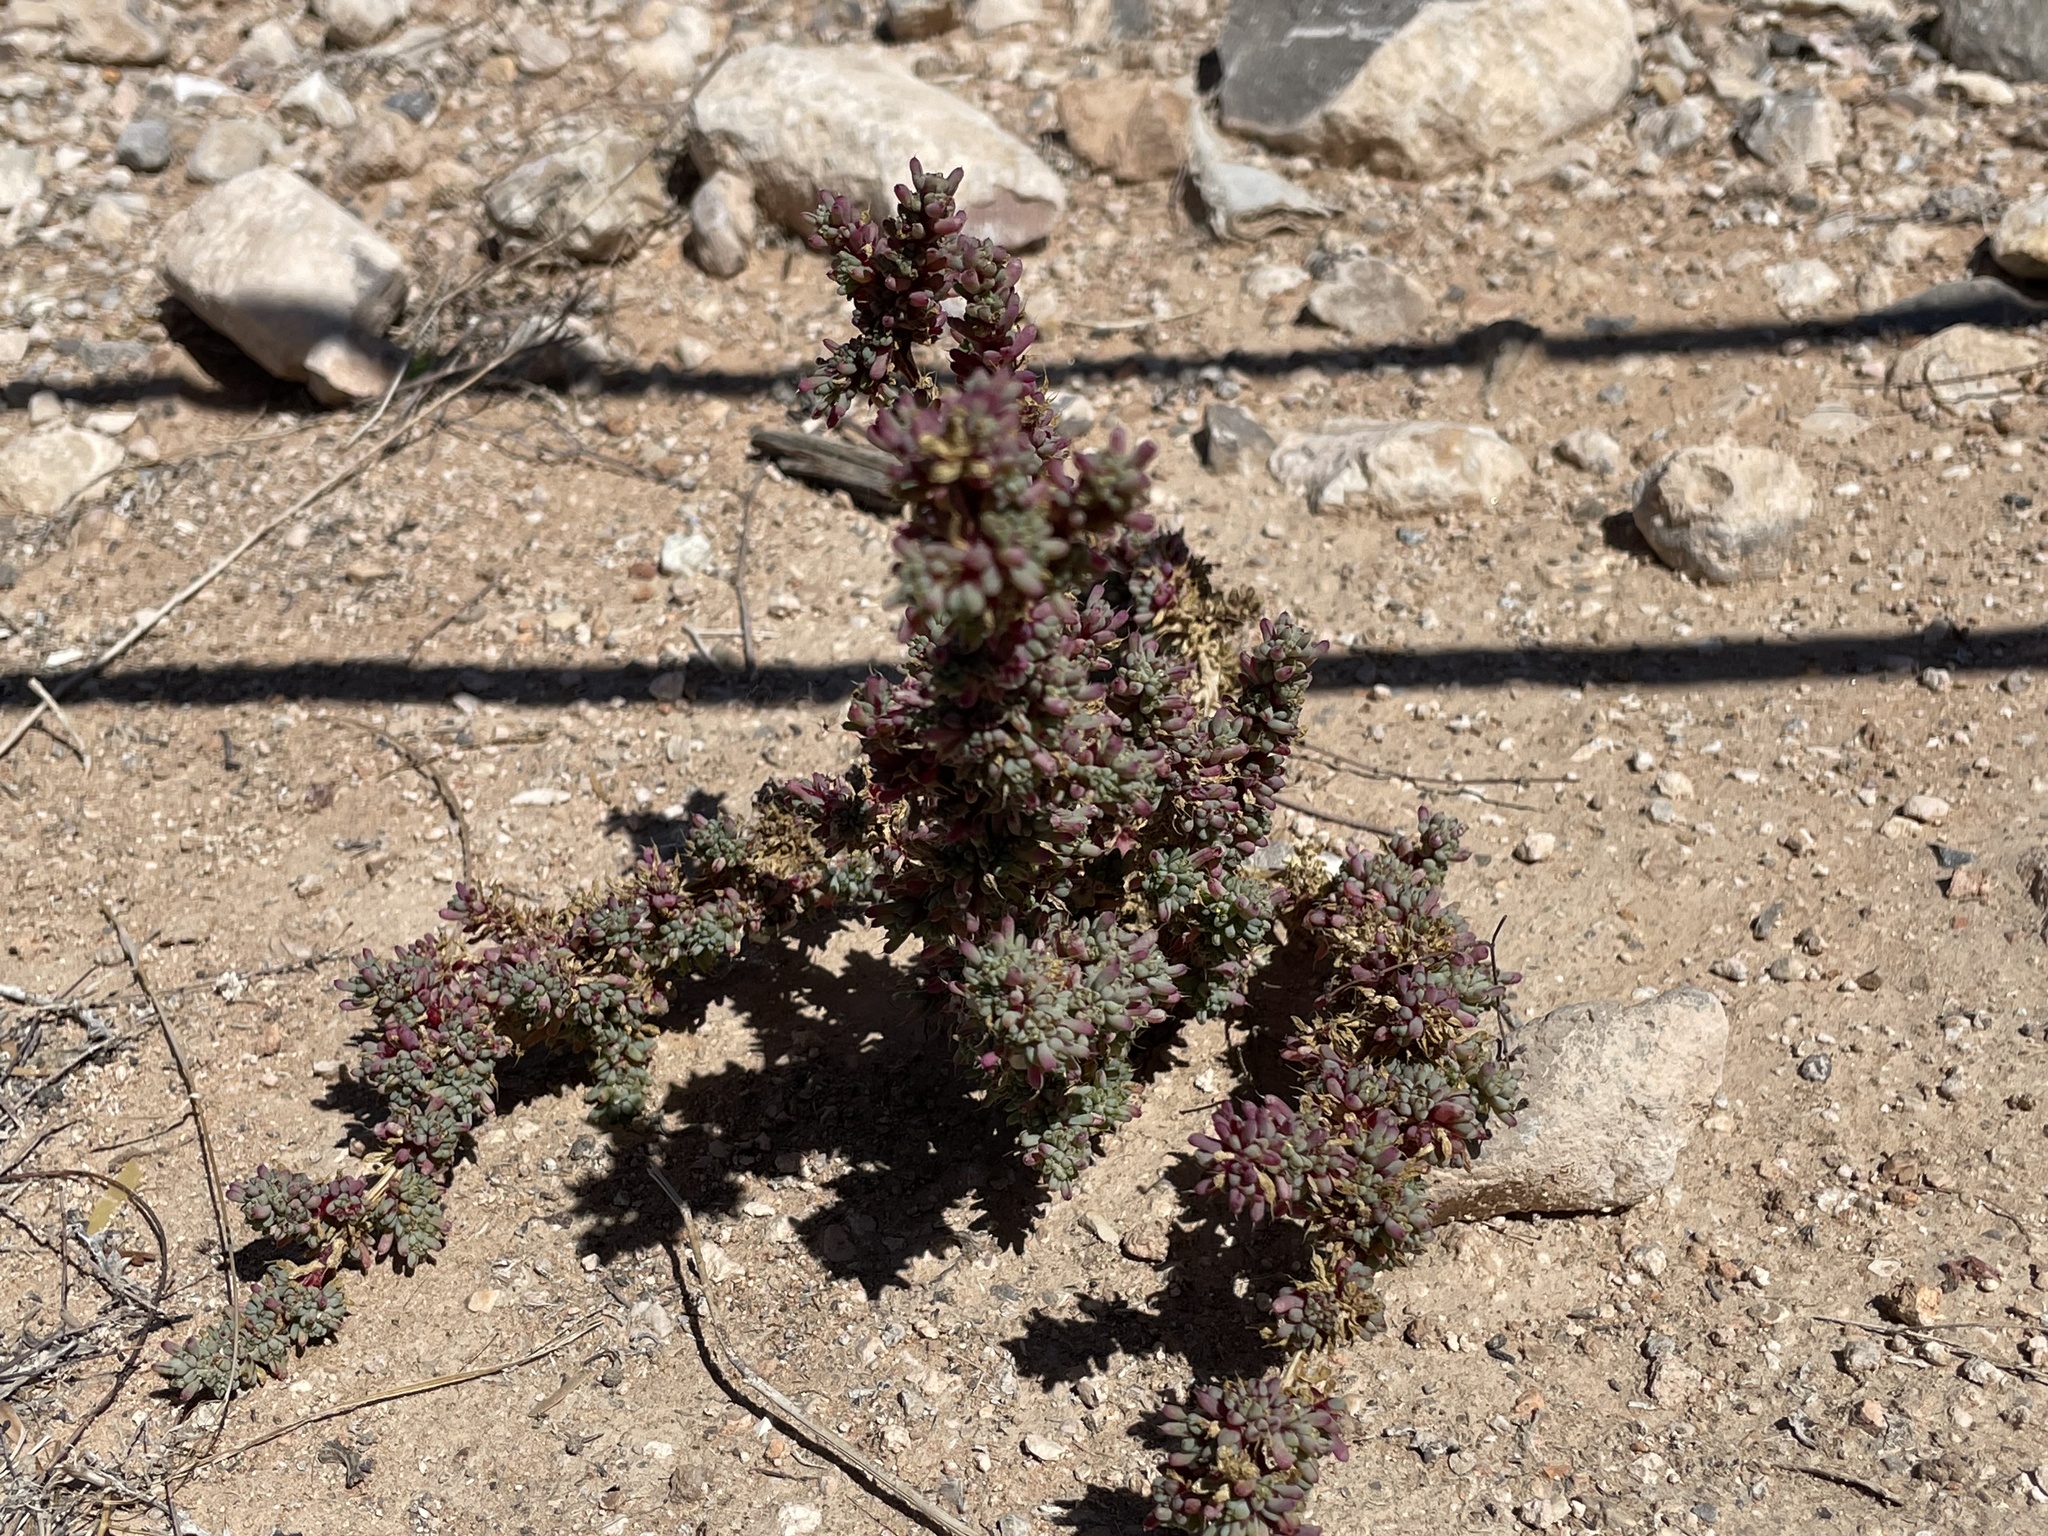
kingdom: Plantae
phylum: Tracheophyta
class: Magnoliopsida
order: Caryophyllales
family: Amaranthaceae
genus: Halogeton
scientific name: Halogeton glomeratus
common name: Saltlover
